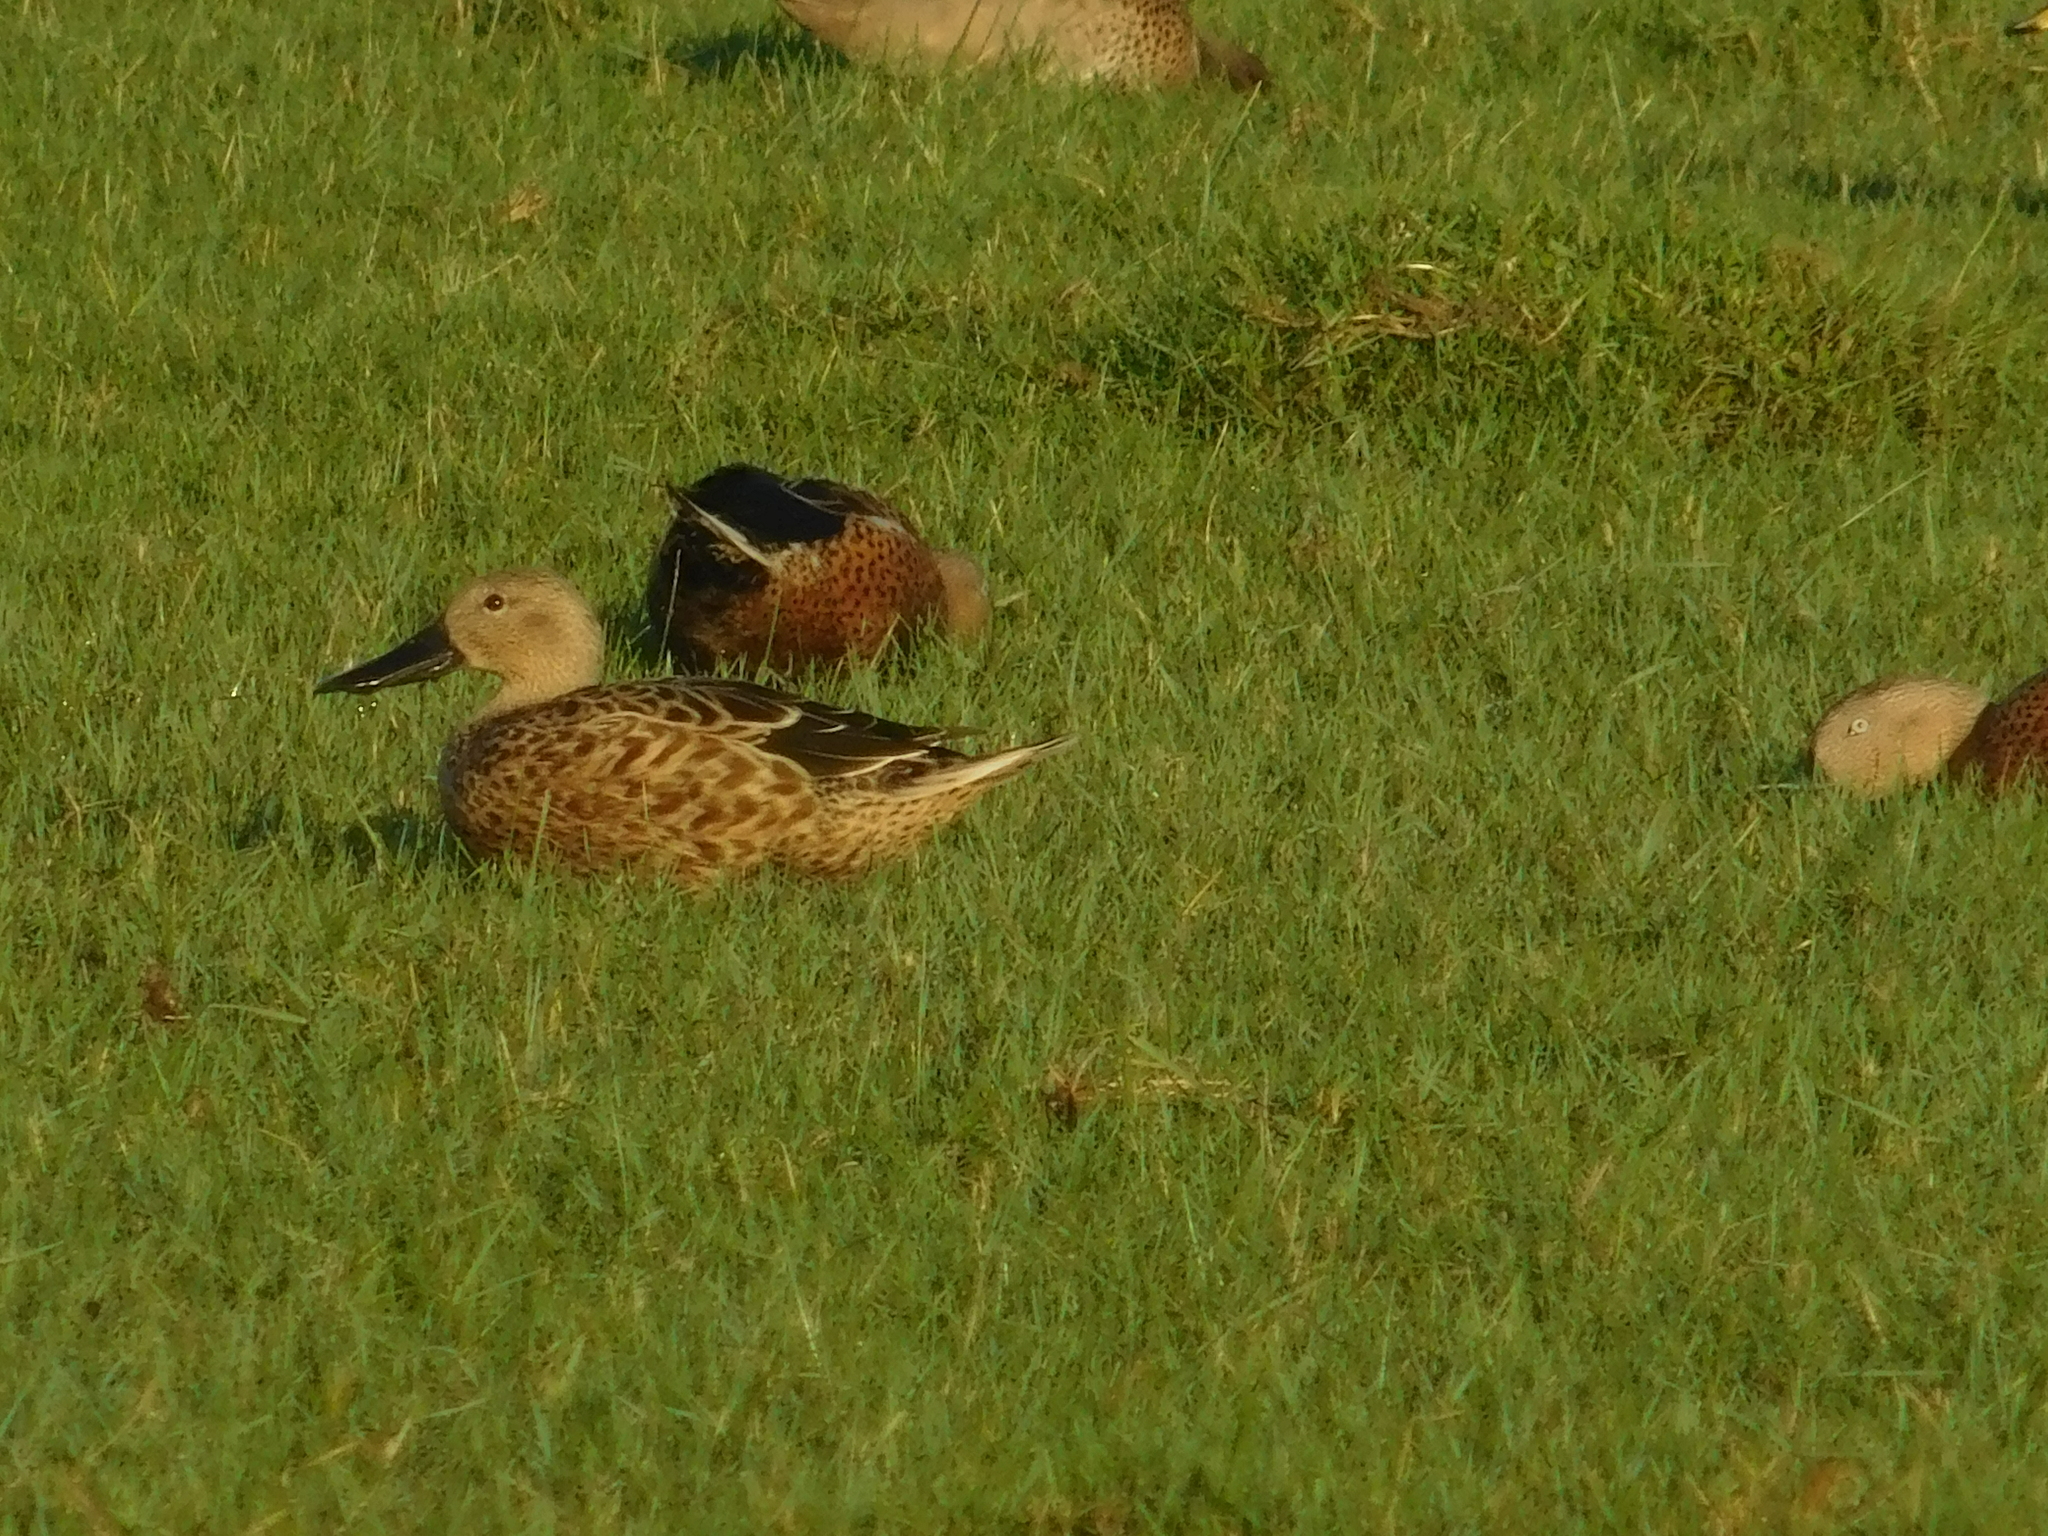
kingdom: Animalia
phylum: Chordata
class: Aves
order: Anseriformes
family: Anatidae
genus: Spatula
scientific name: Spatula platalea
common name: Red shoveler
